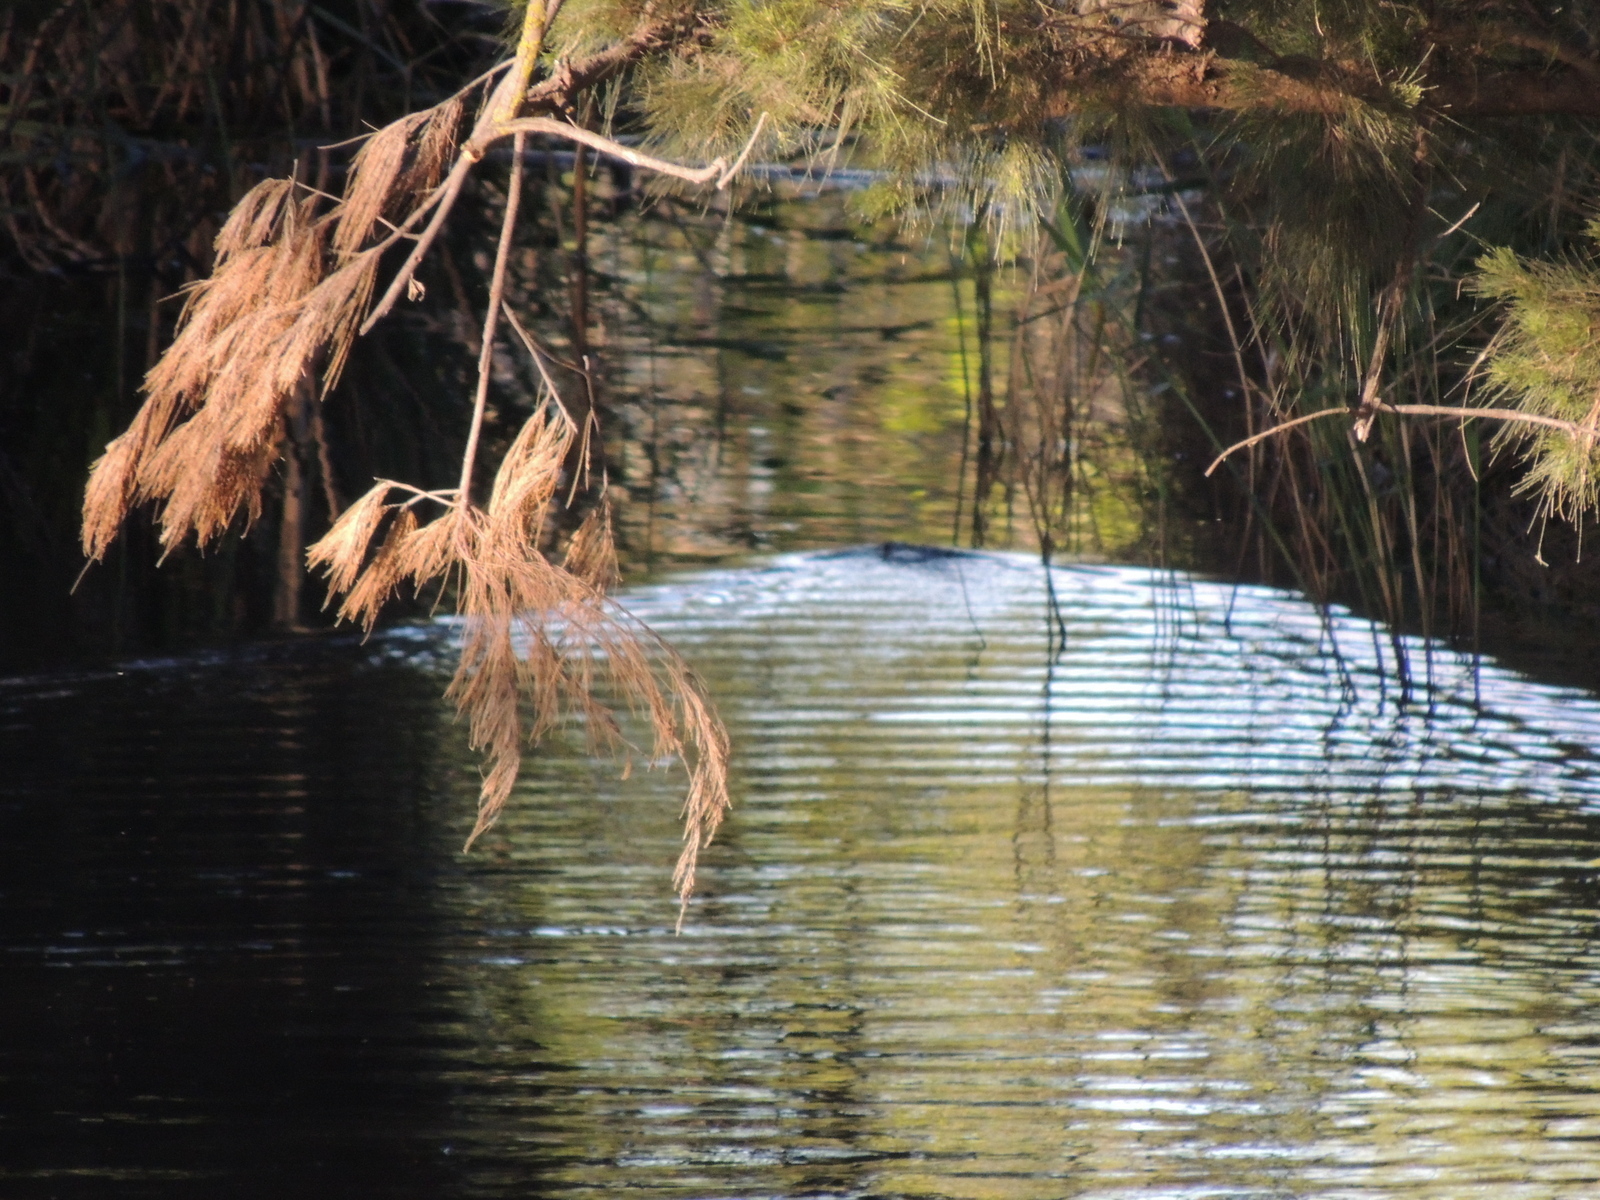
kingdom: Animalia
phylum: Chordata
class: Mammalia
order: Rodentia
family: Muridae
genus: Hydromys
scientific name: Hydromys chrysogaster
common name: Common water rat
